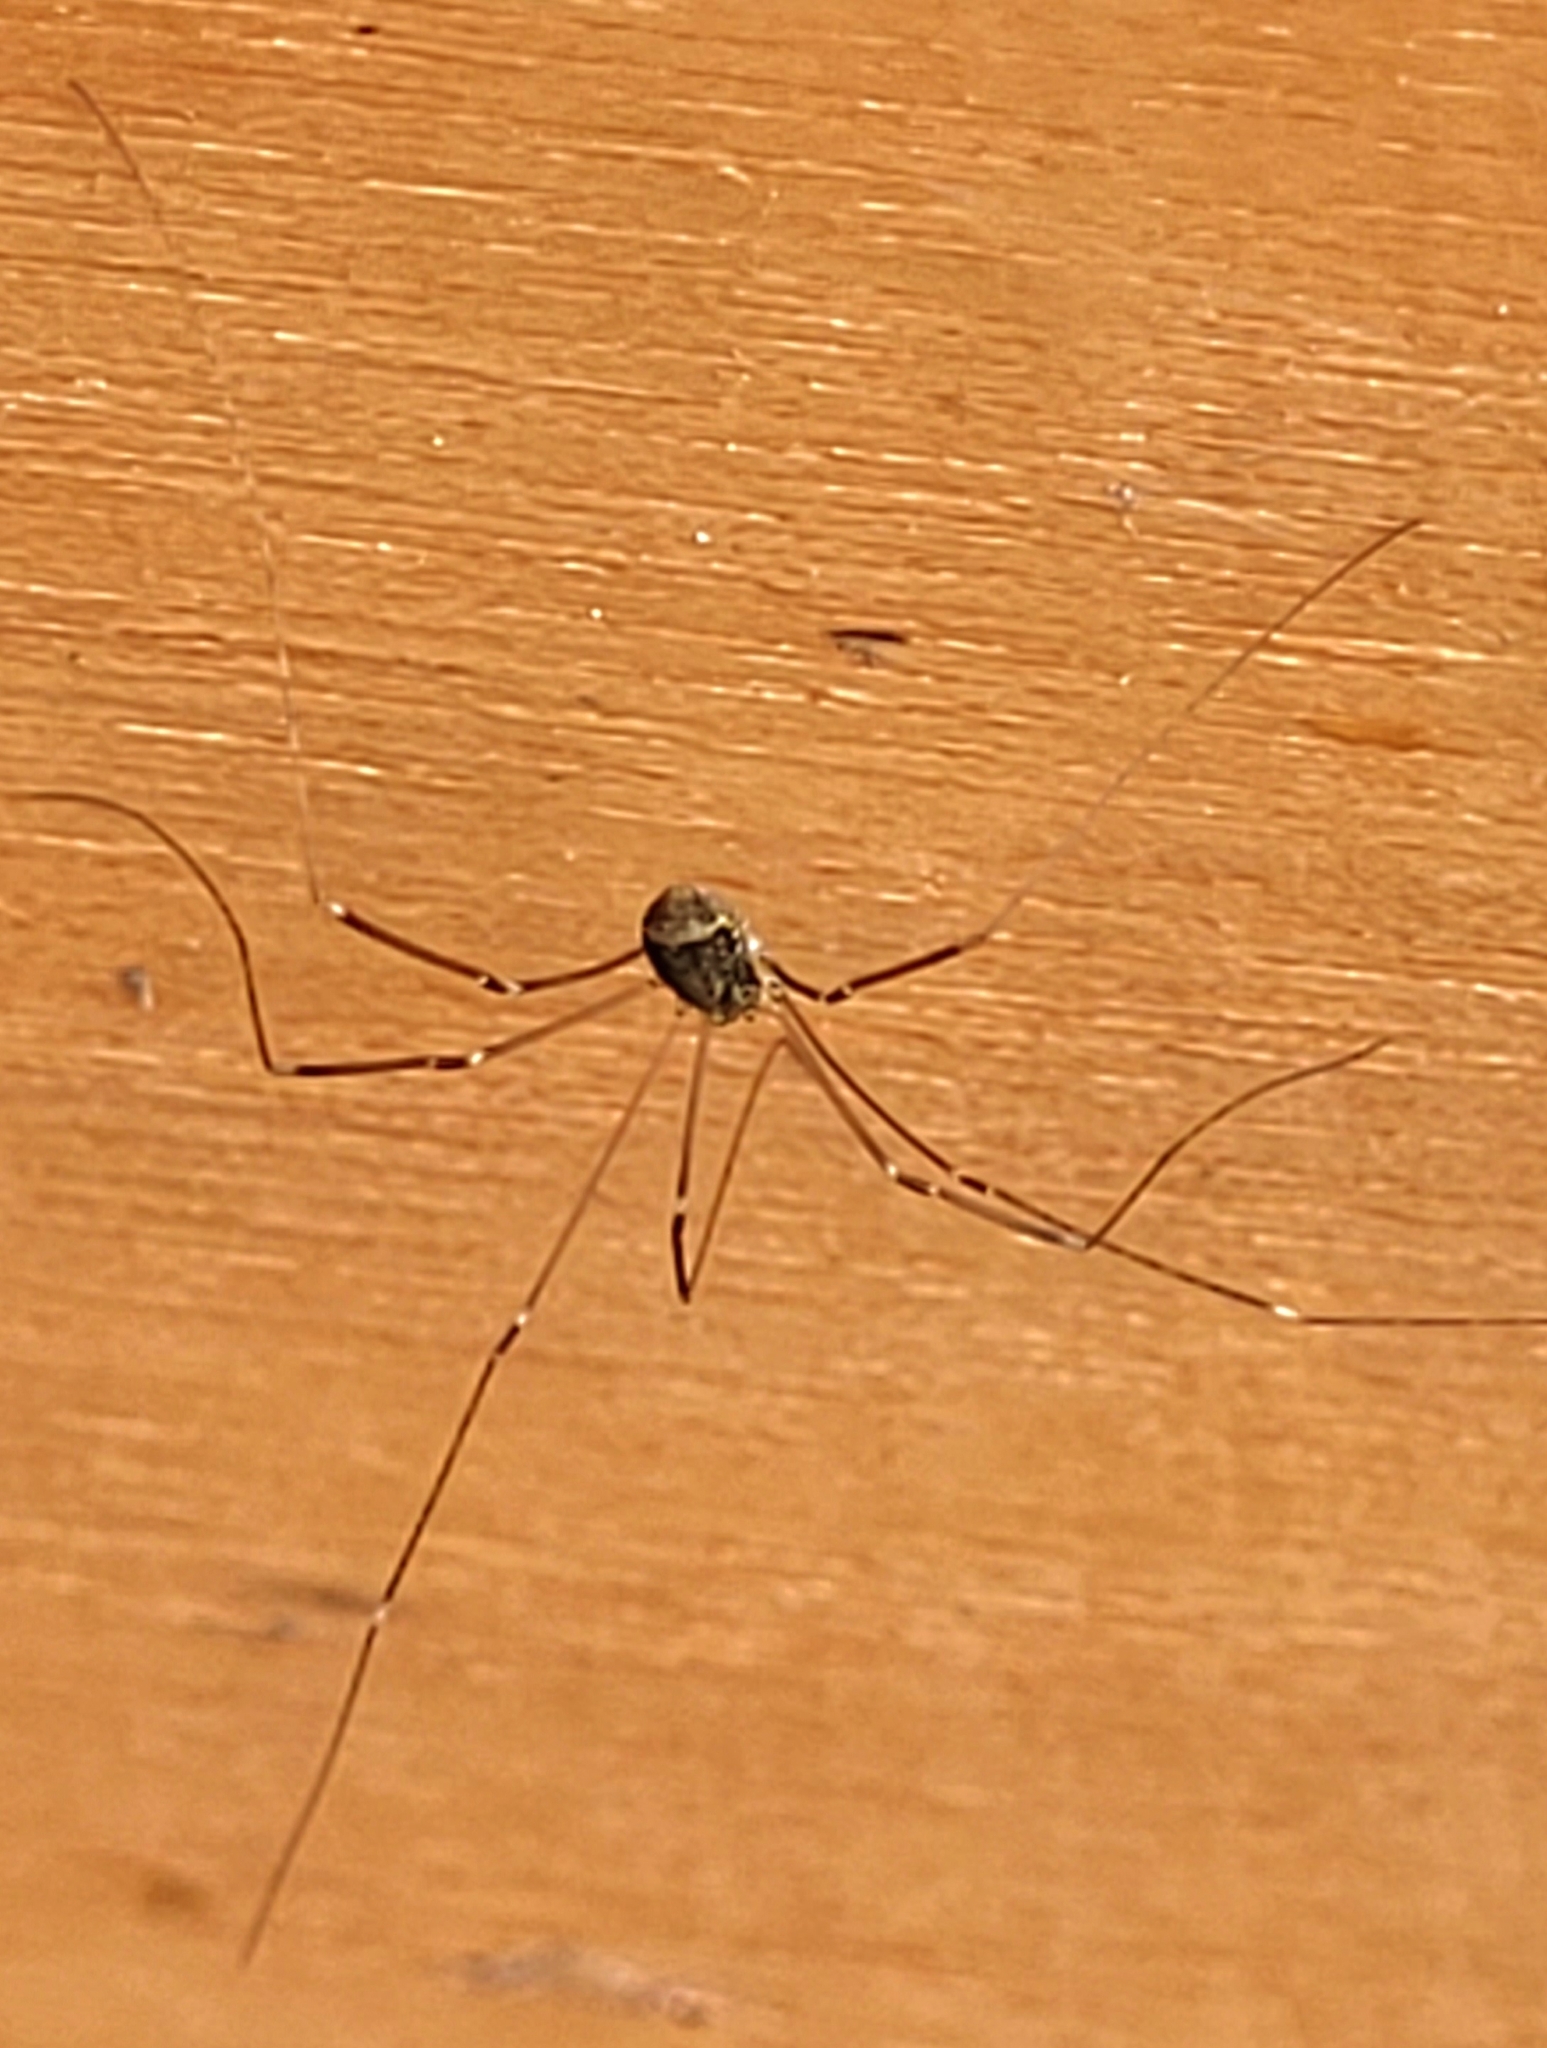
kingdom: Animalia
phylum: Arthropoda
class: Arachnida
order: Opiliones
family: Sclerosomatidae
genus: Leiobunum
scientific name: Leiobunum blackwalli
